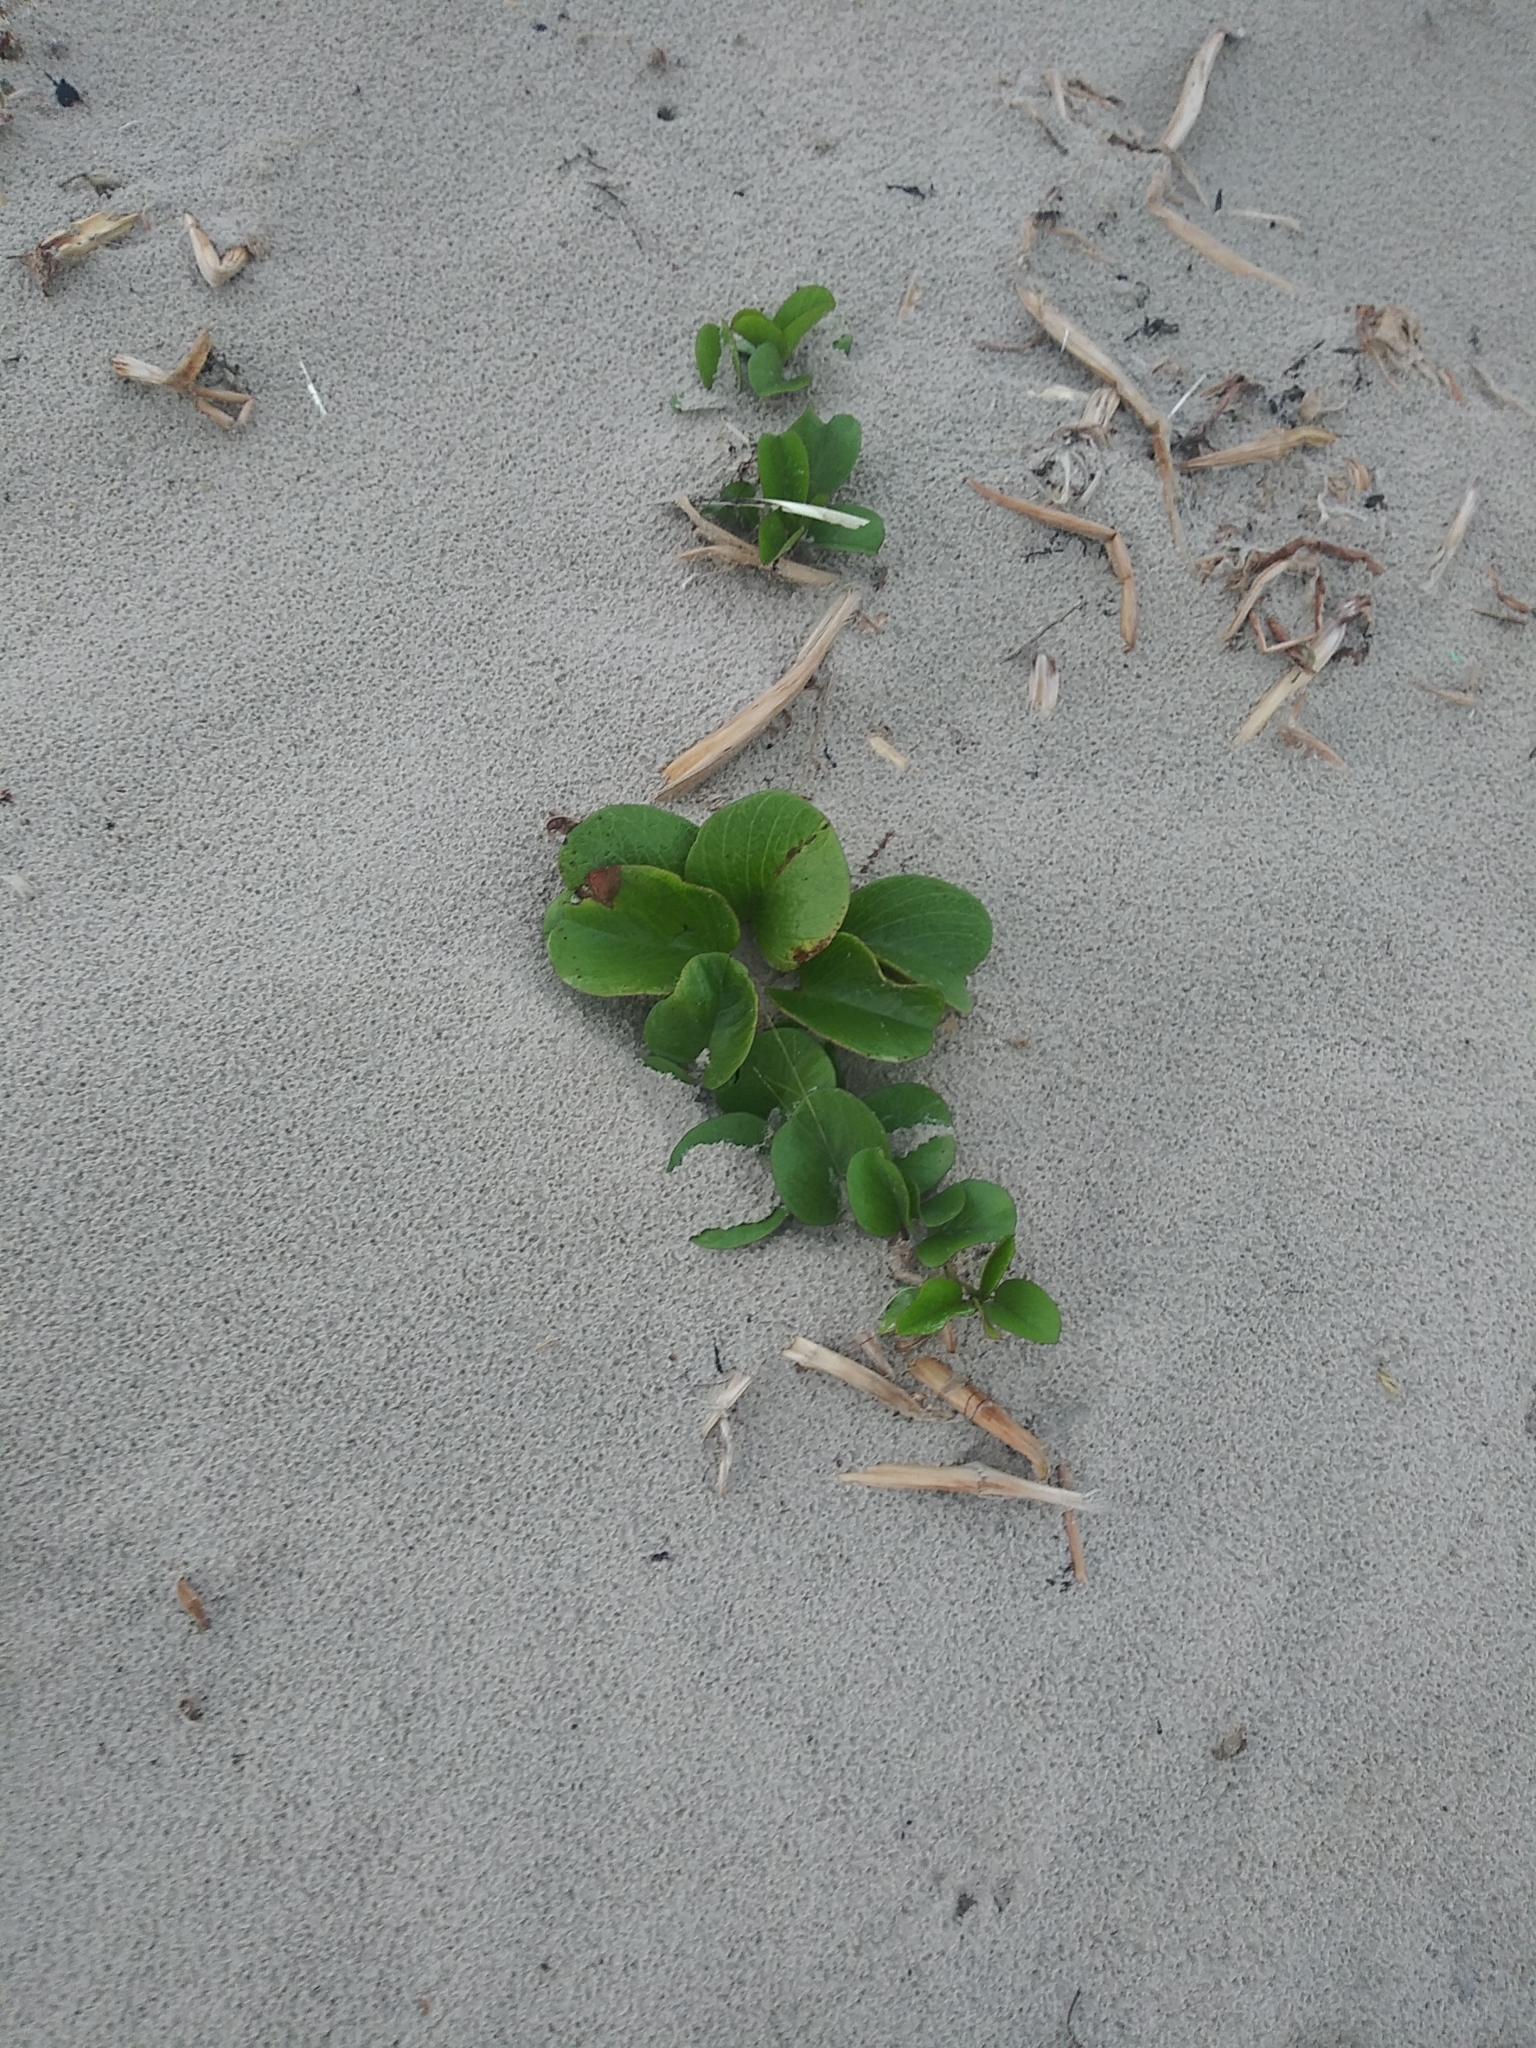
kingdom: Plantae
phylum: Tracheophyta
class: Magnoliopsida
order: Solanales
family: Convolvulaceae
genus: Ipomoea
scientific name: Ipomoea pes-caprae
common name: Beach morning glory
